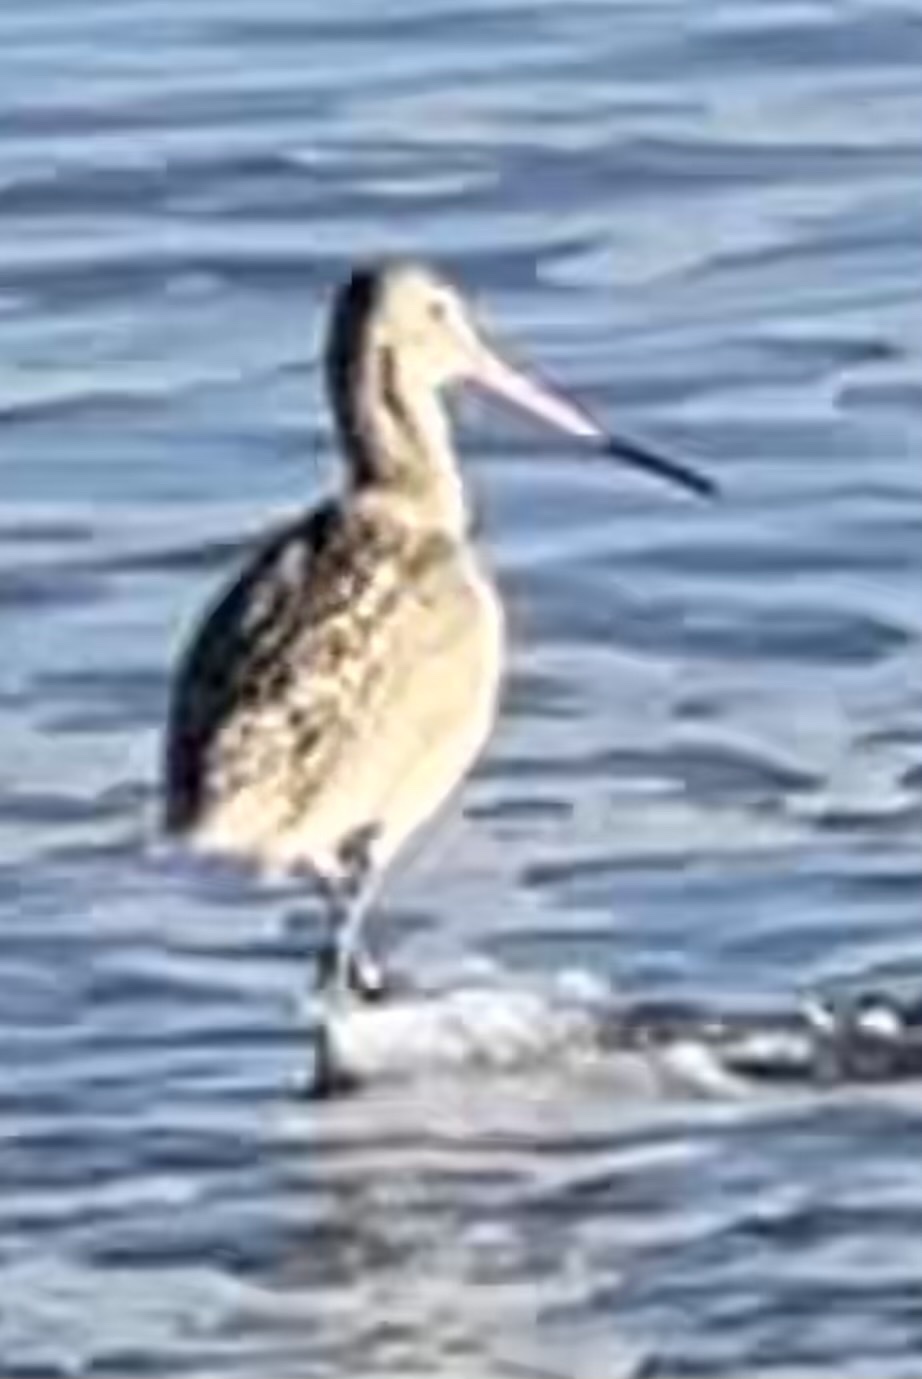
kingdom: Animalia
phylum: Chordata
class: Aves
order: Charadriiformes
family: Scolopacidae
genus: Limosa
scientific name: Limosa fedoa
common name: Marbled godwit
